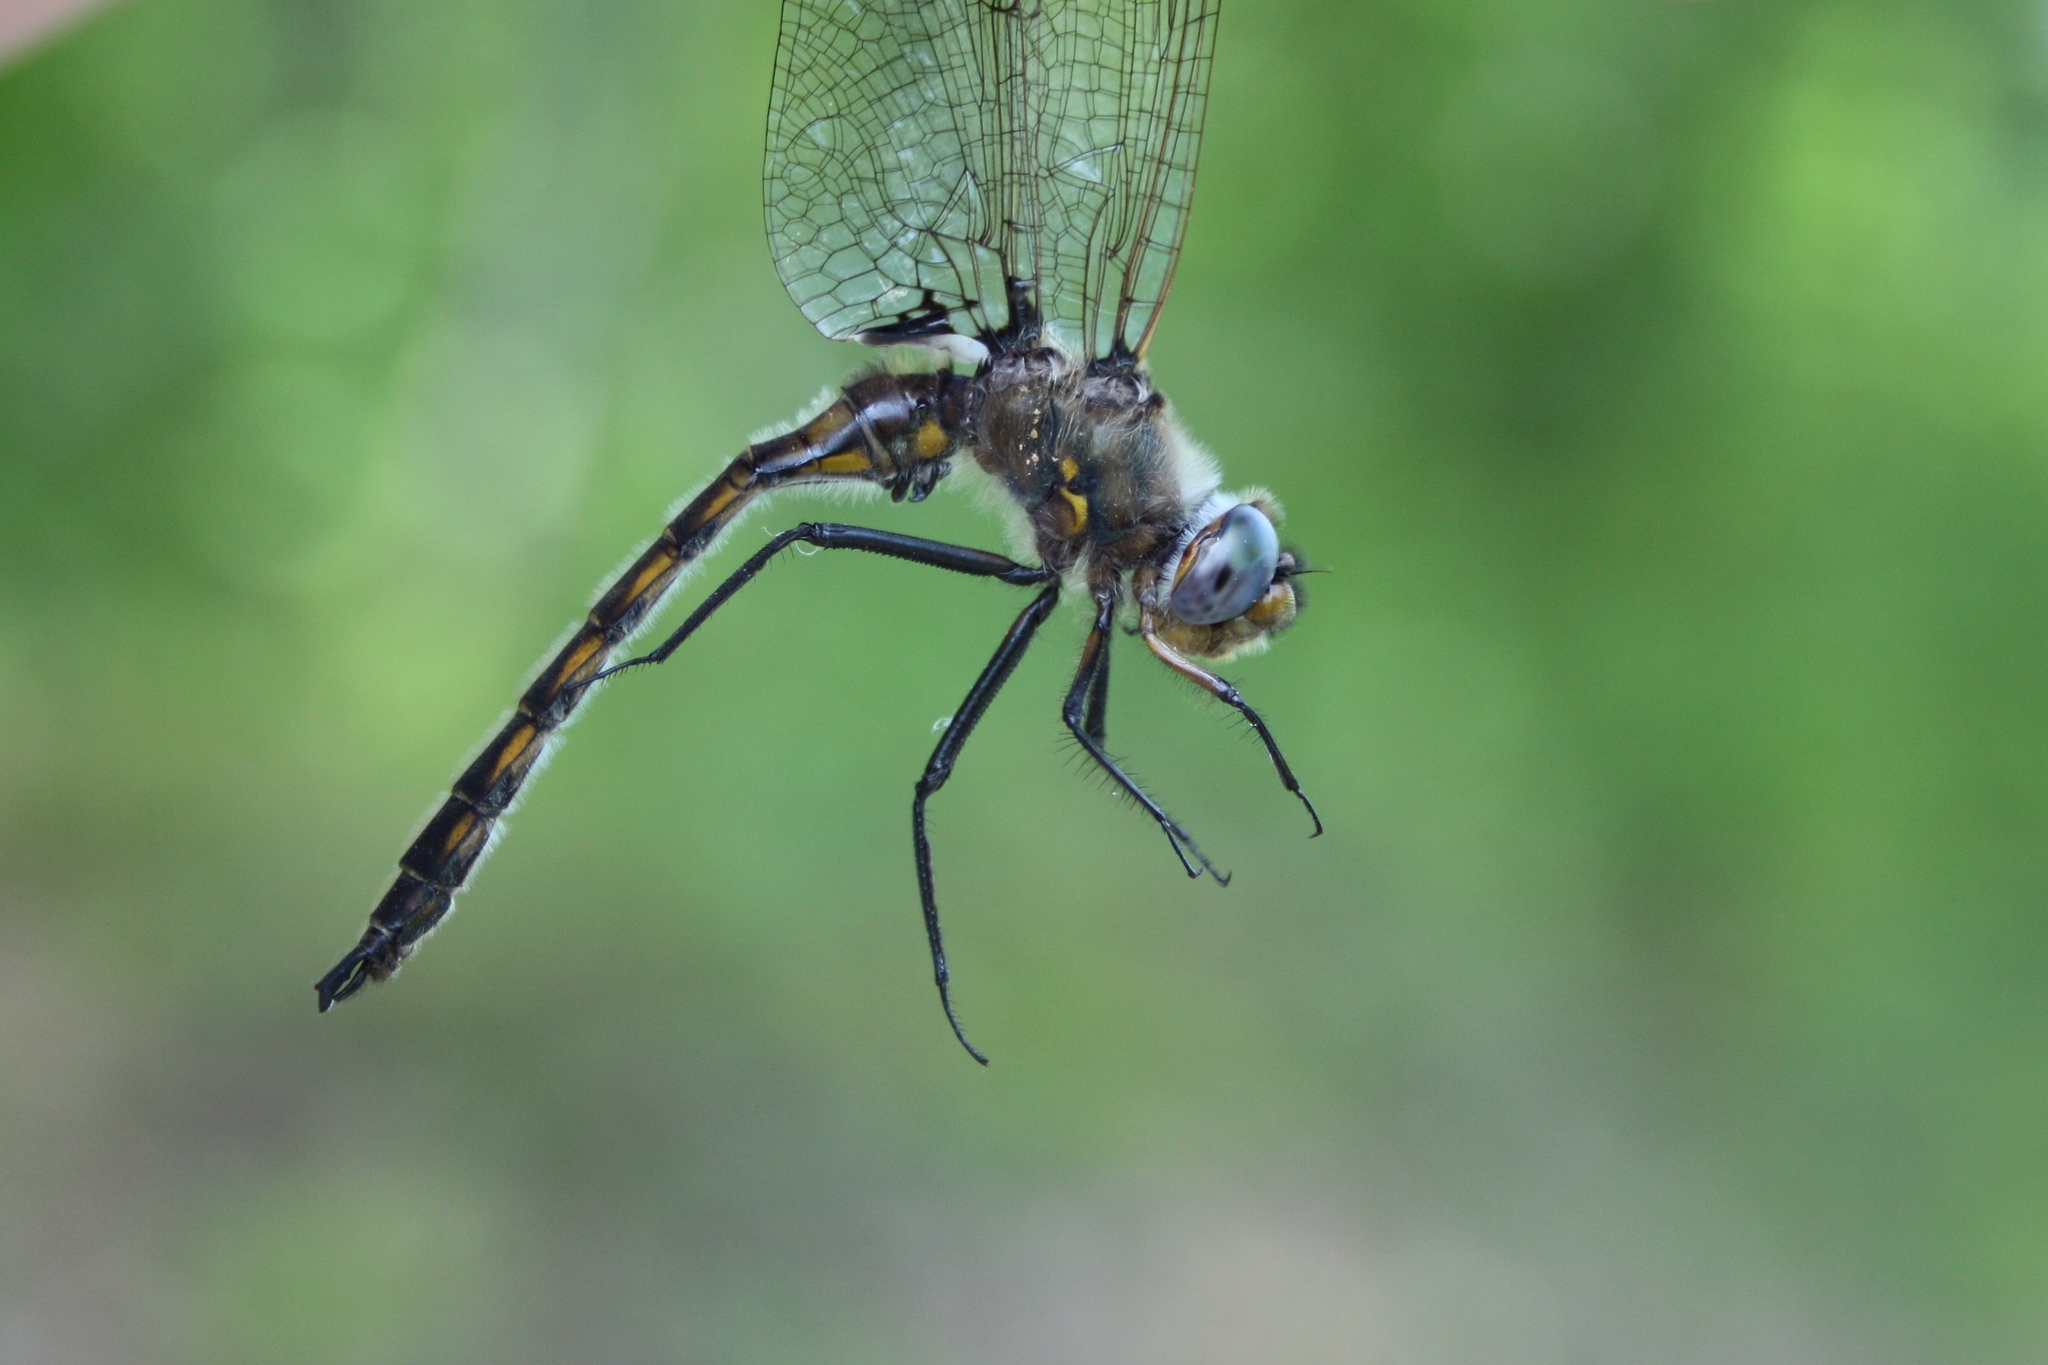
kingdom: Animalia
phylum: Arthropoda
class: Insecta
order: Odonata
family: Corduliidae
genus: Epitheca
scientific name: Epitheca canis
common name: Beaverpond baskettail
